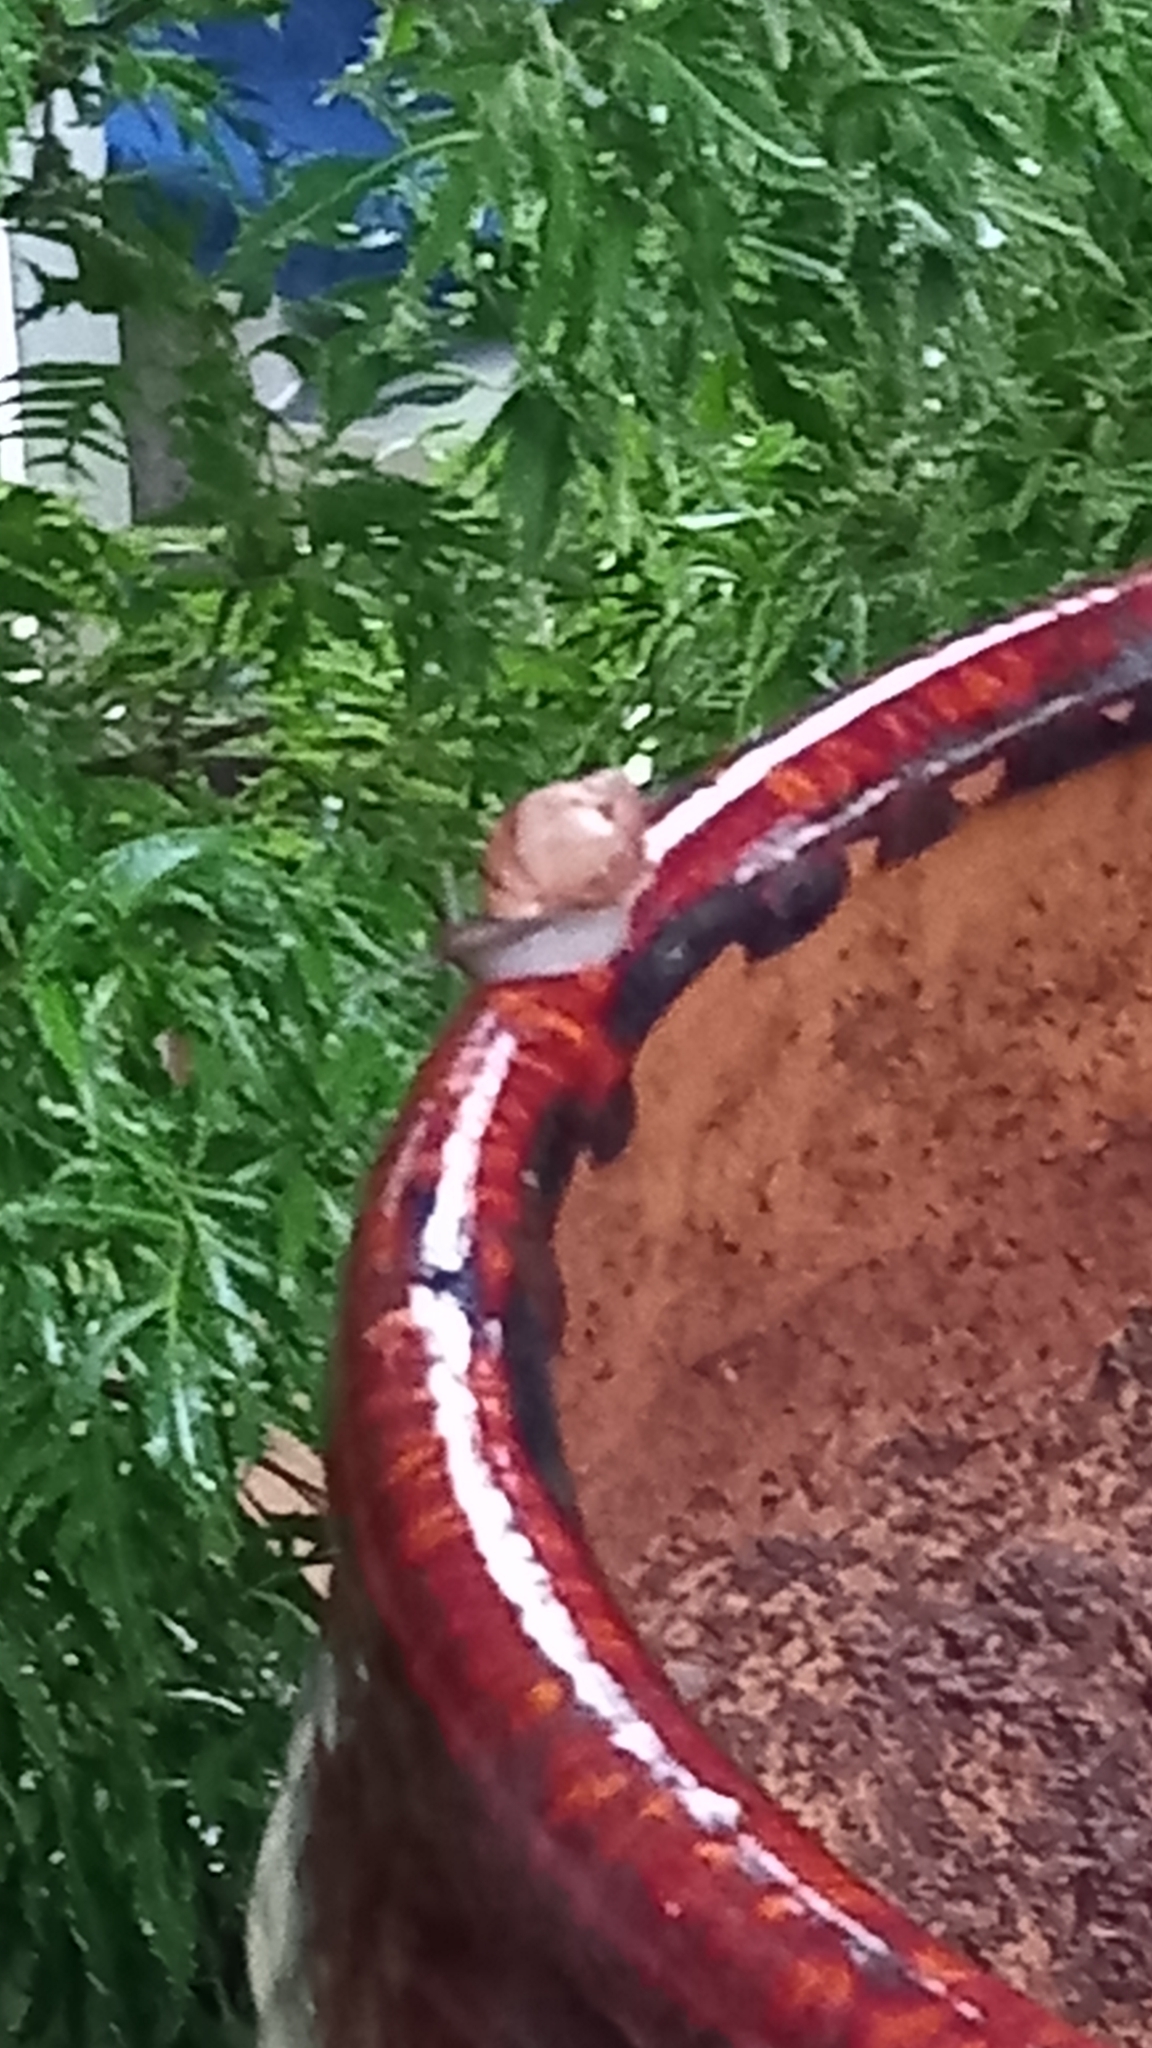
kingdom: Animalia
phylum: Mollusca
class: Gastropoda
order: Stylommatophora
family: Achatinidae
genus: Lissachatina
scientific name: Lissachatina fulica
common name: Giant african snail
